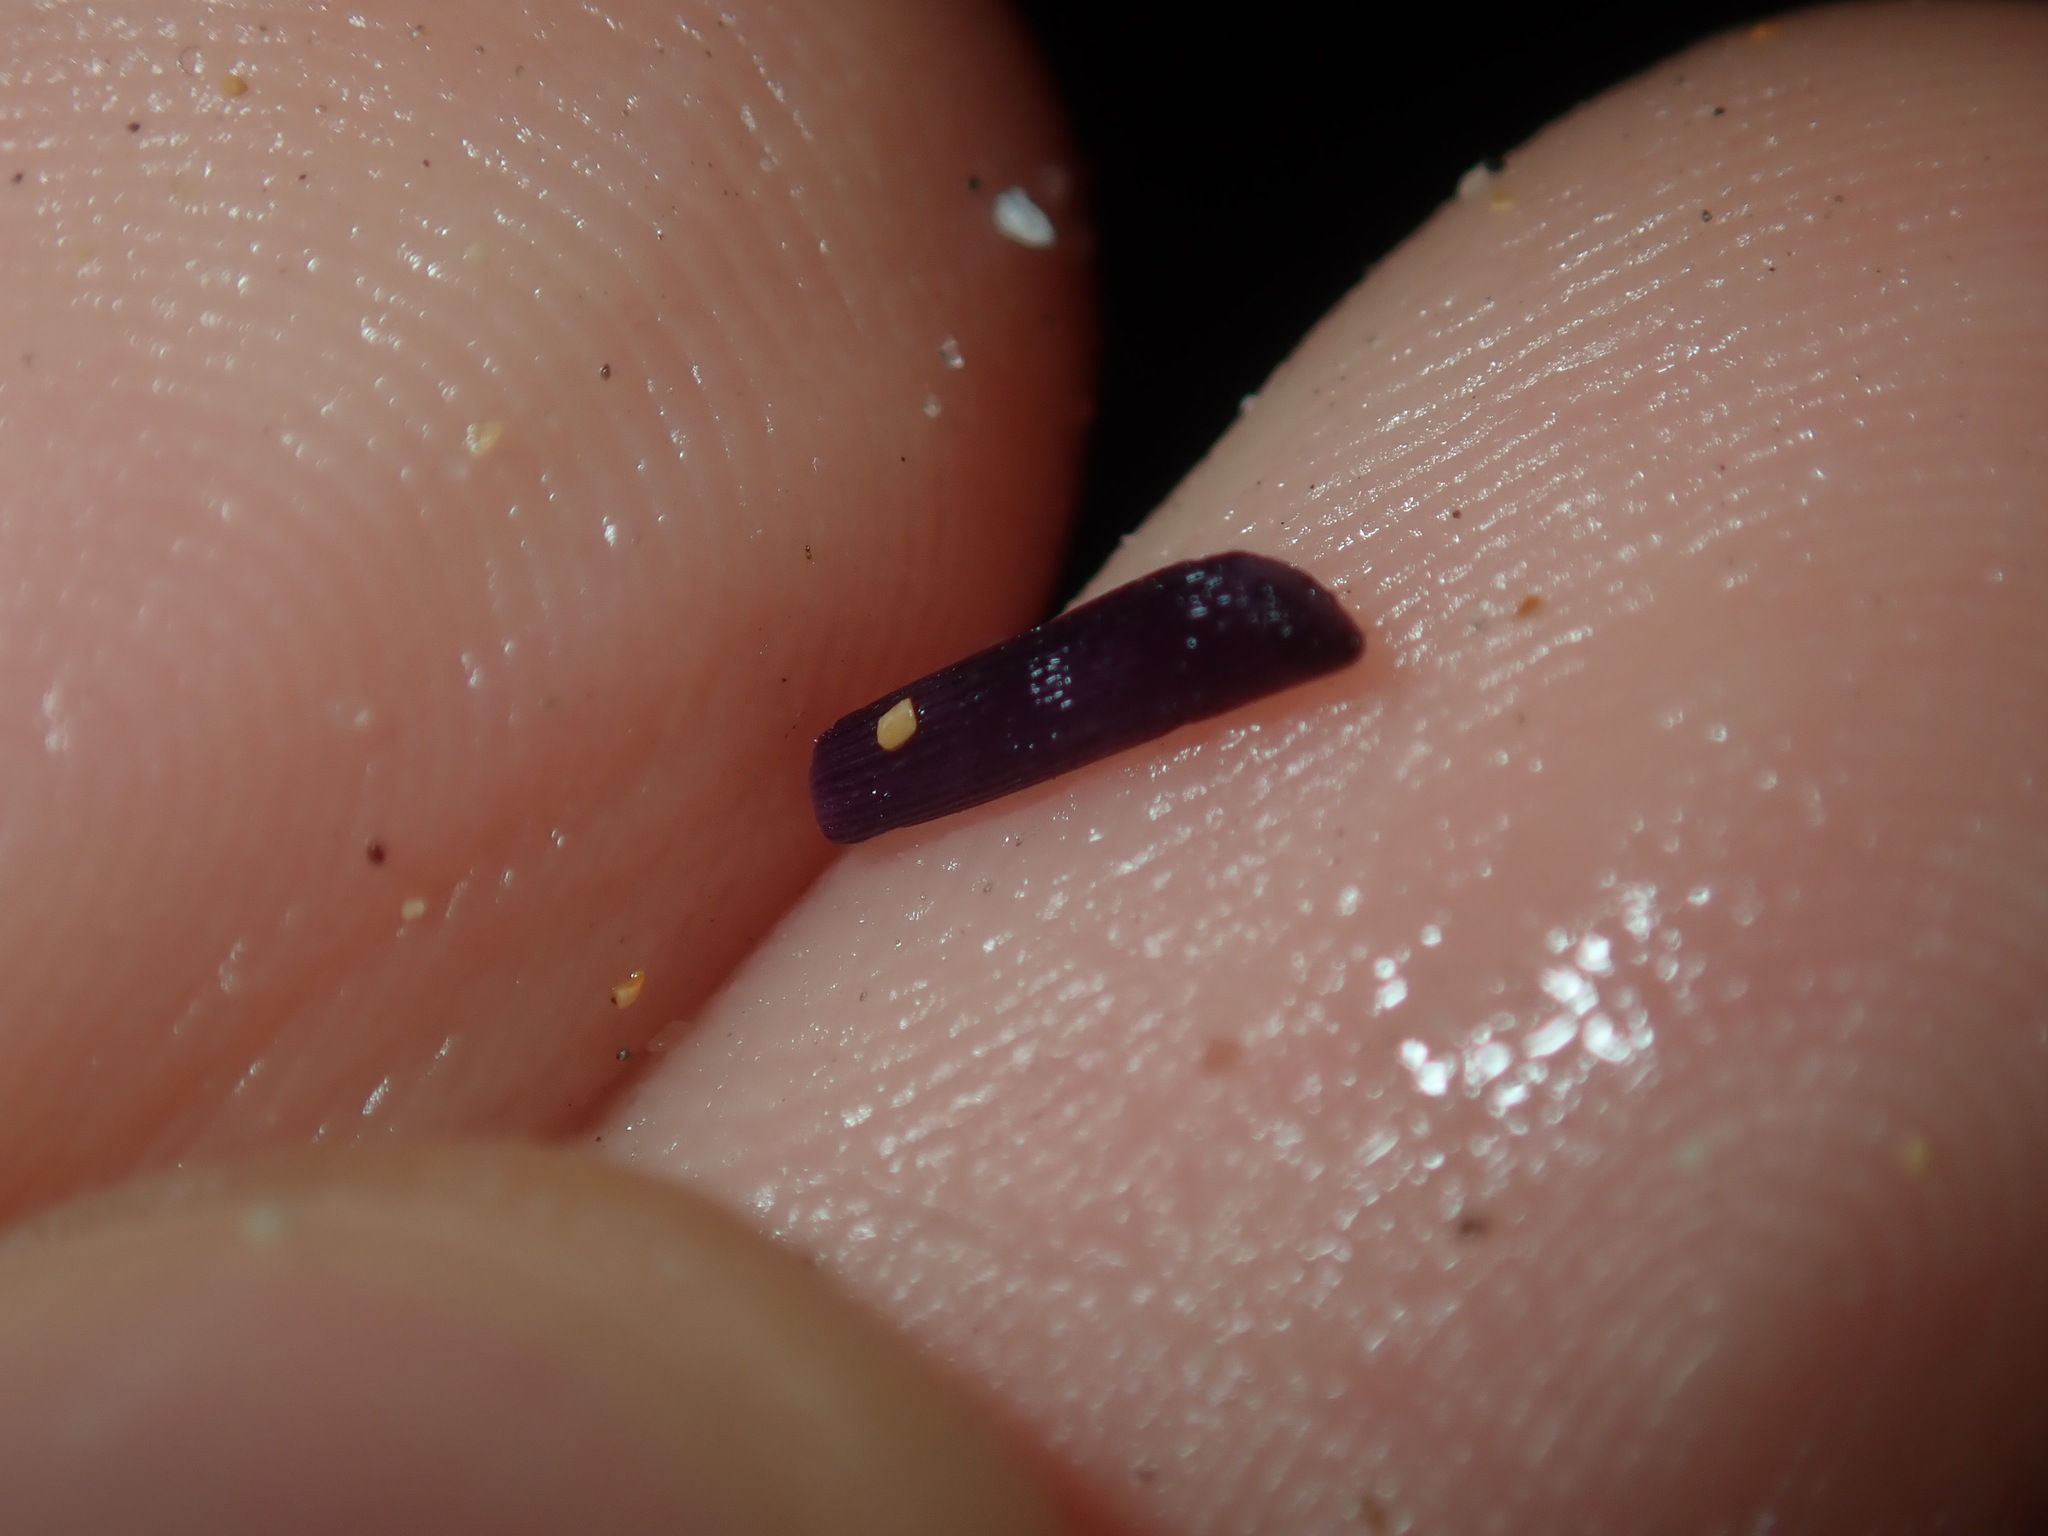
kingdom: Animalia
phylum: Echinodermata
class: Echinoidea
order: Diadematoida
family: Diadematidae
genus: Centrostephanus
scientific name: Centrostephanus rodgersii
